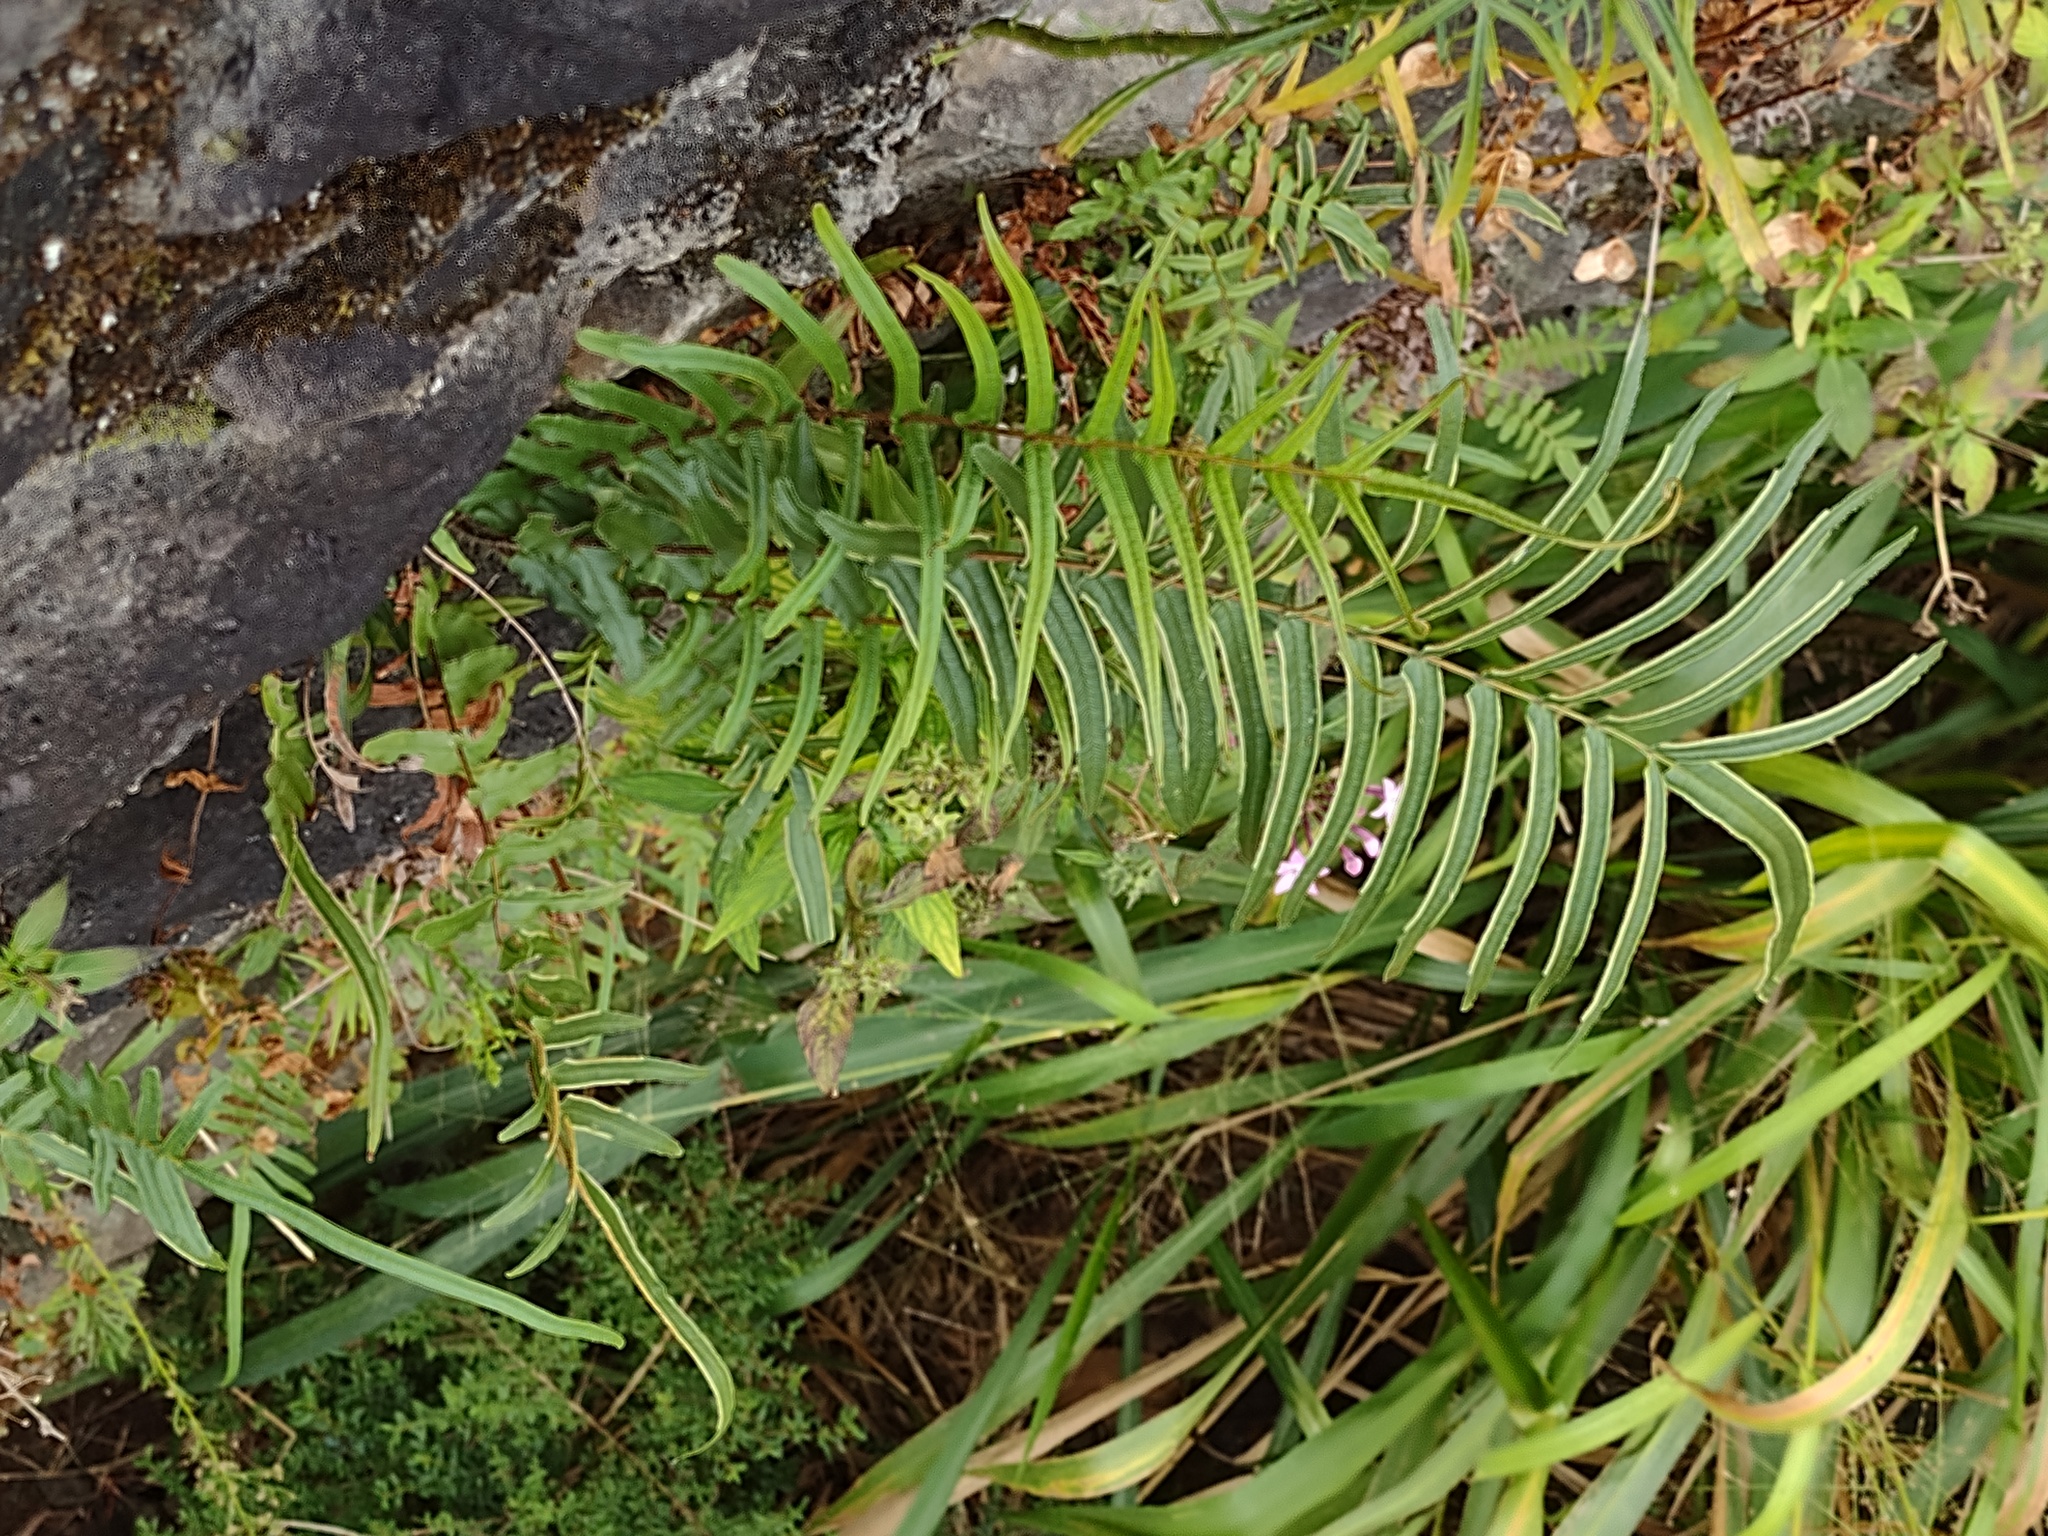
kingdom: Plantae
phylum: Tracheophyta
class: Polypodiopsida
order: Polypodiales
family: Pteridaceae
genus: Pteris
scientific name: Pteris vittata
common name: Ladder brake
